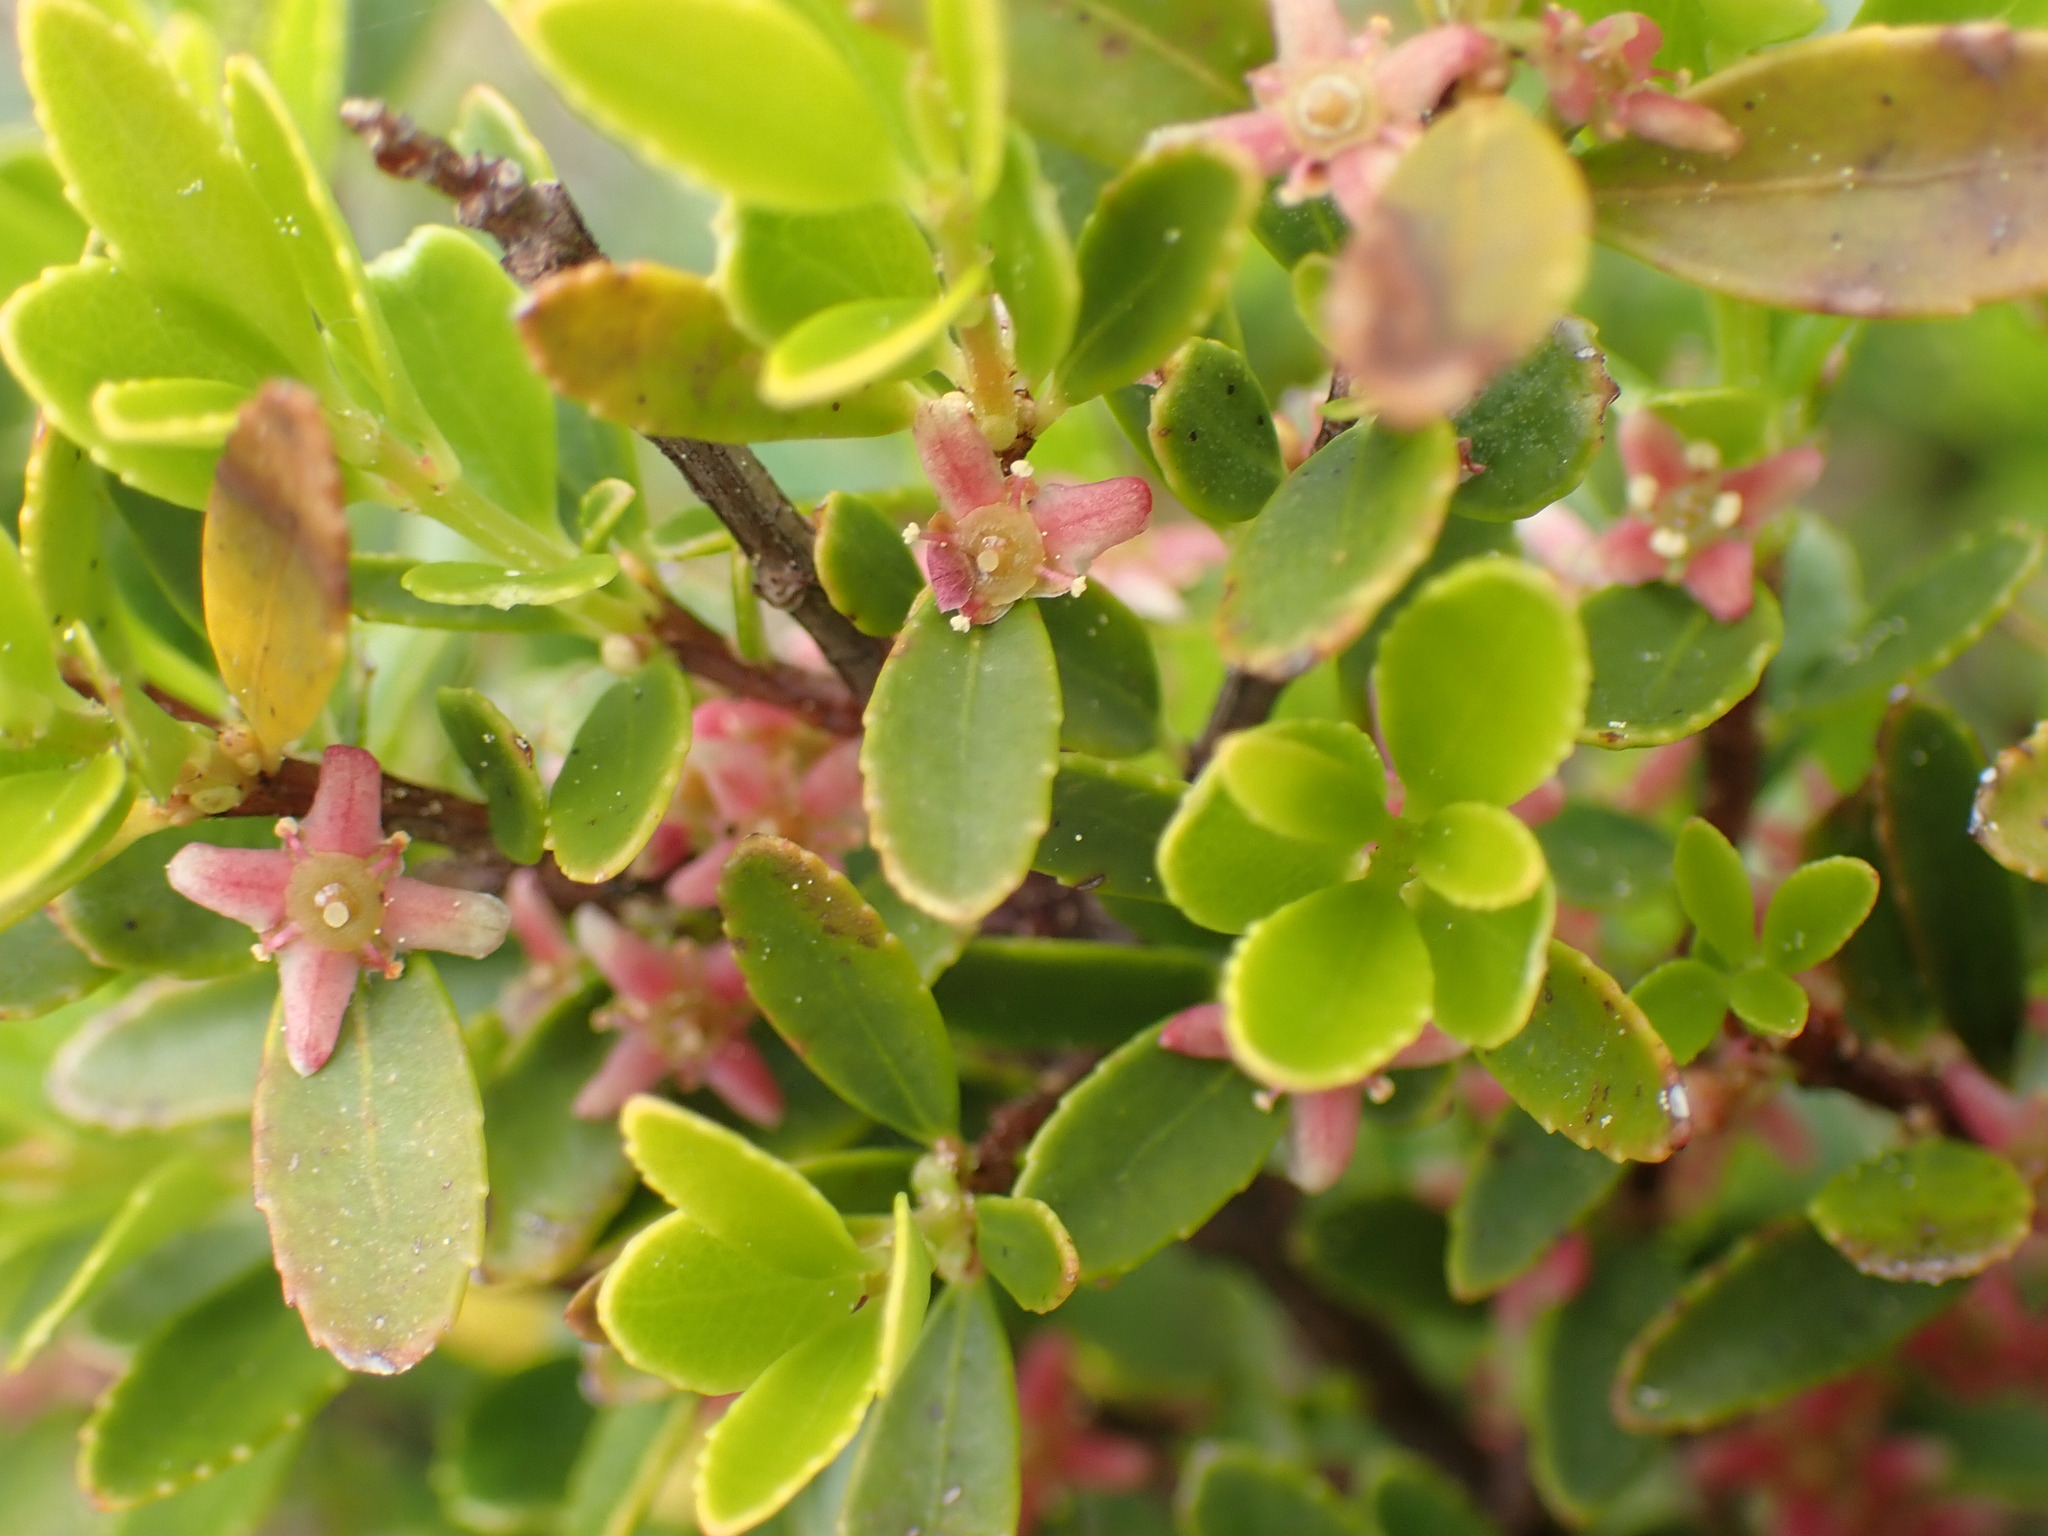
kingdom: Plantae
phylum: Tracheophyta
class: Magnoliopsida
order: Celastrales
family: Celastraceae
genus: Paxistima
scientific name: Paxistima myrsinites
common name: Mountain-lover
